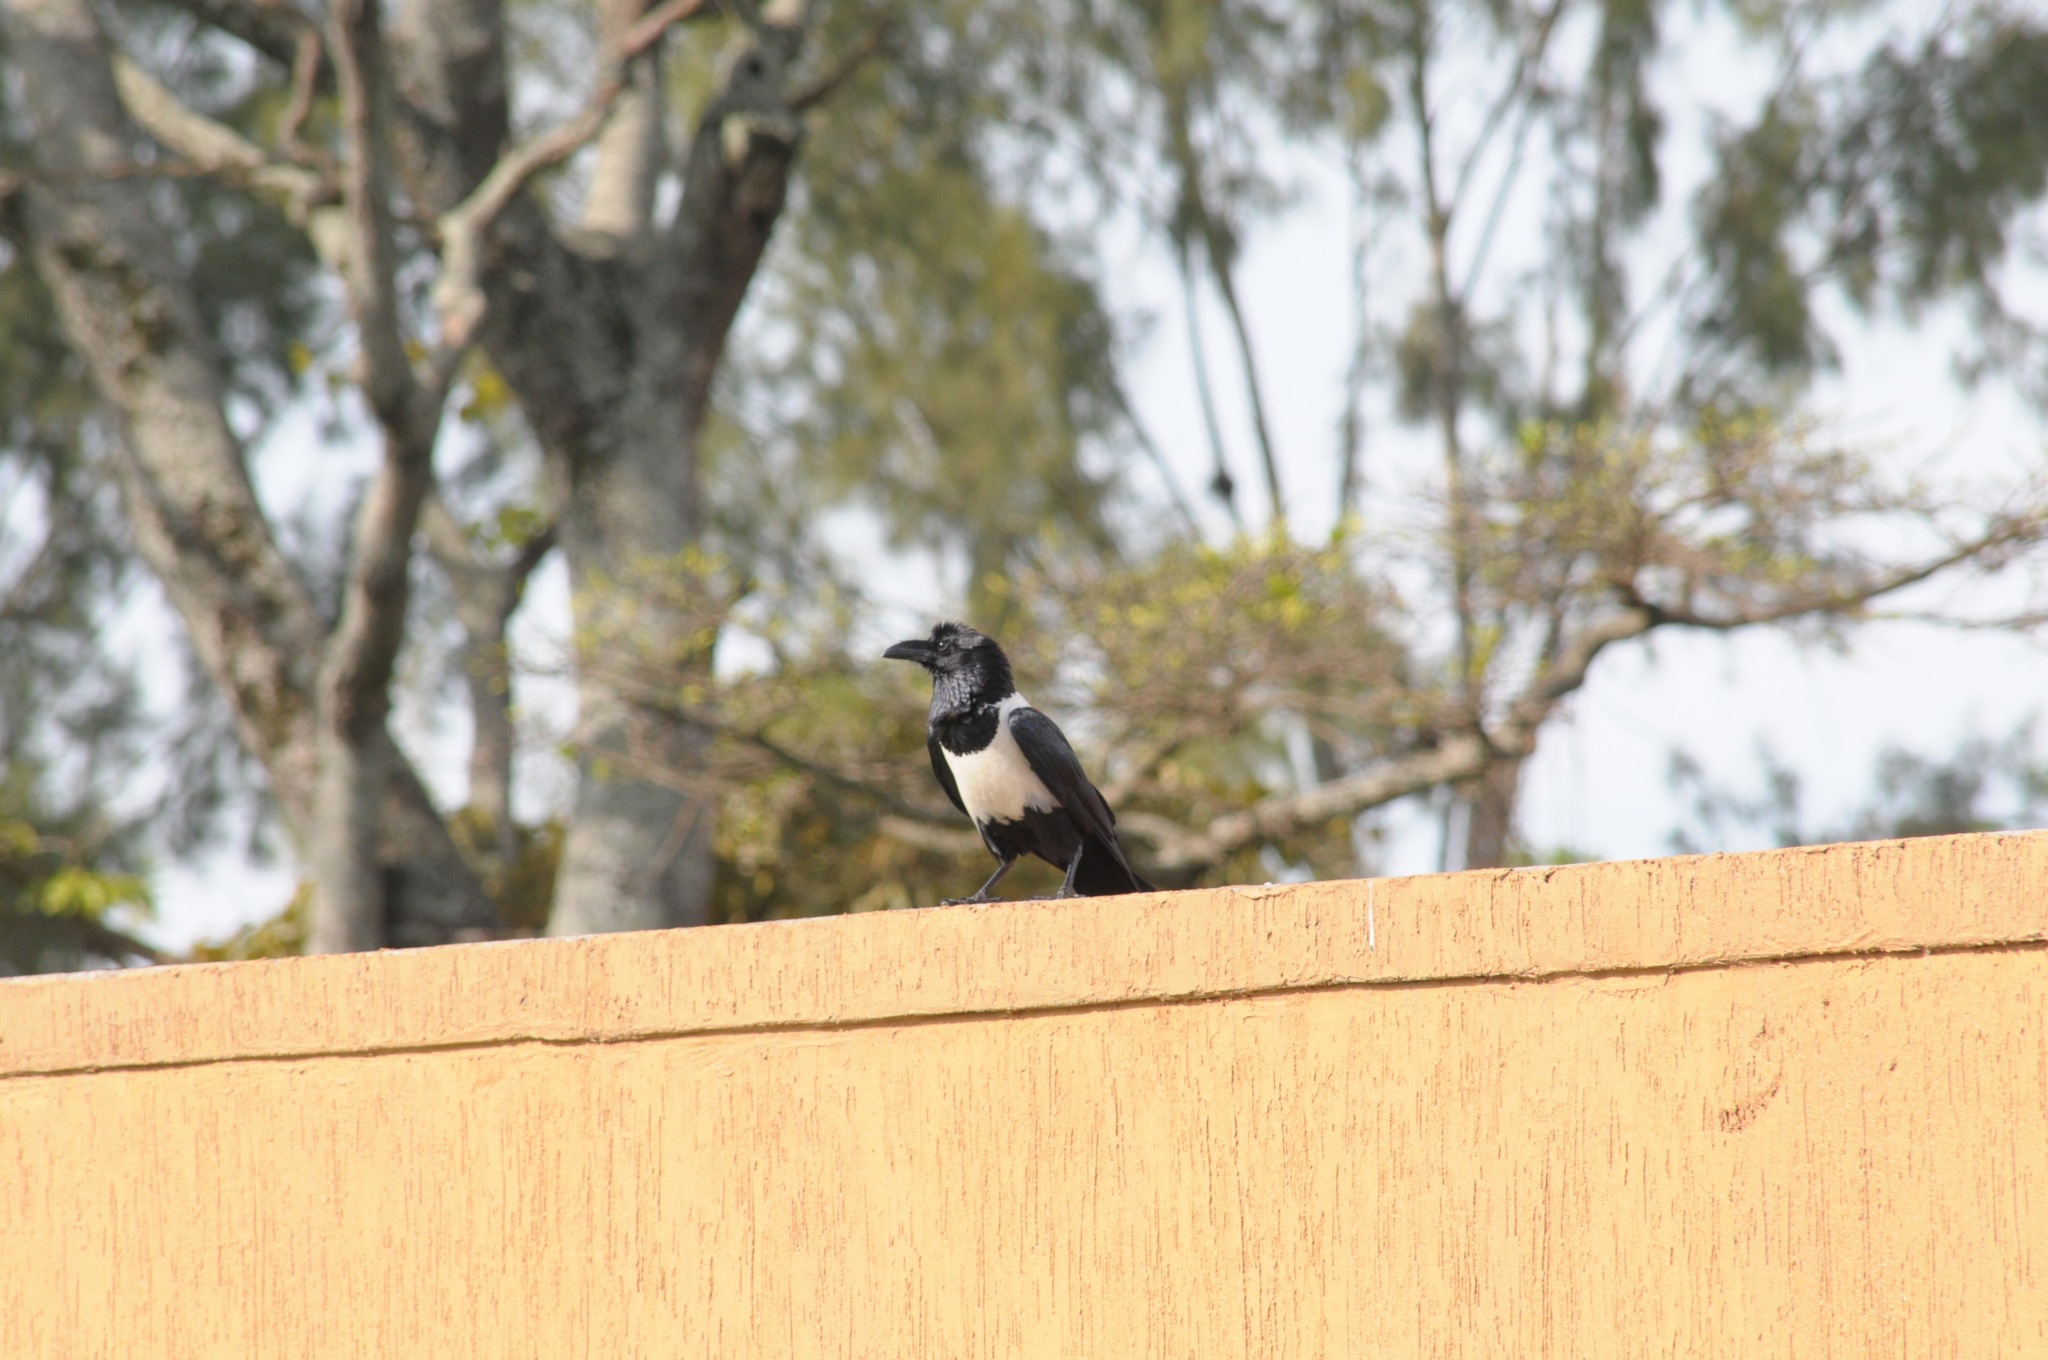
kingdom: Animalia
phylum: Chordata
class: Aves
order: Passeriformes
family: Corvidae
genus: Corvus
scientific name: Corvus albus
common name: Pied crow
